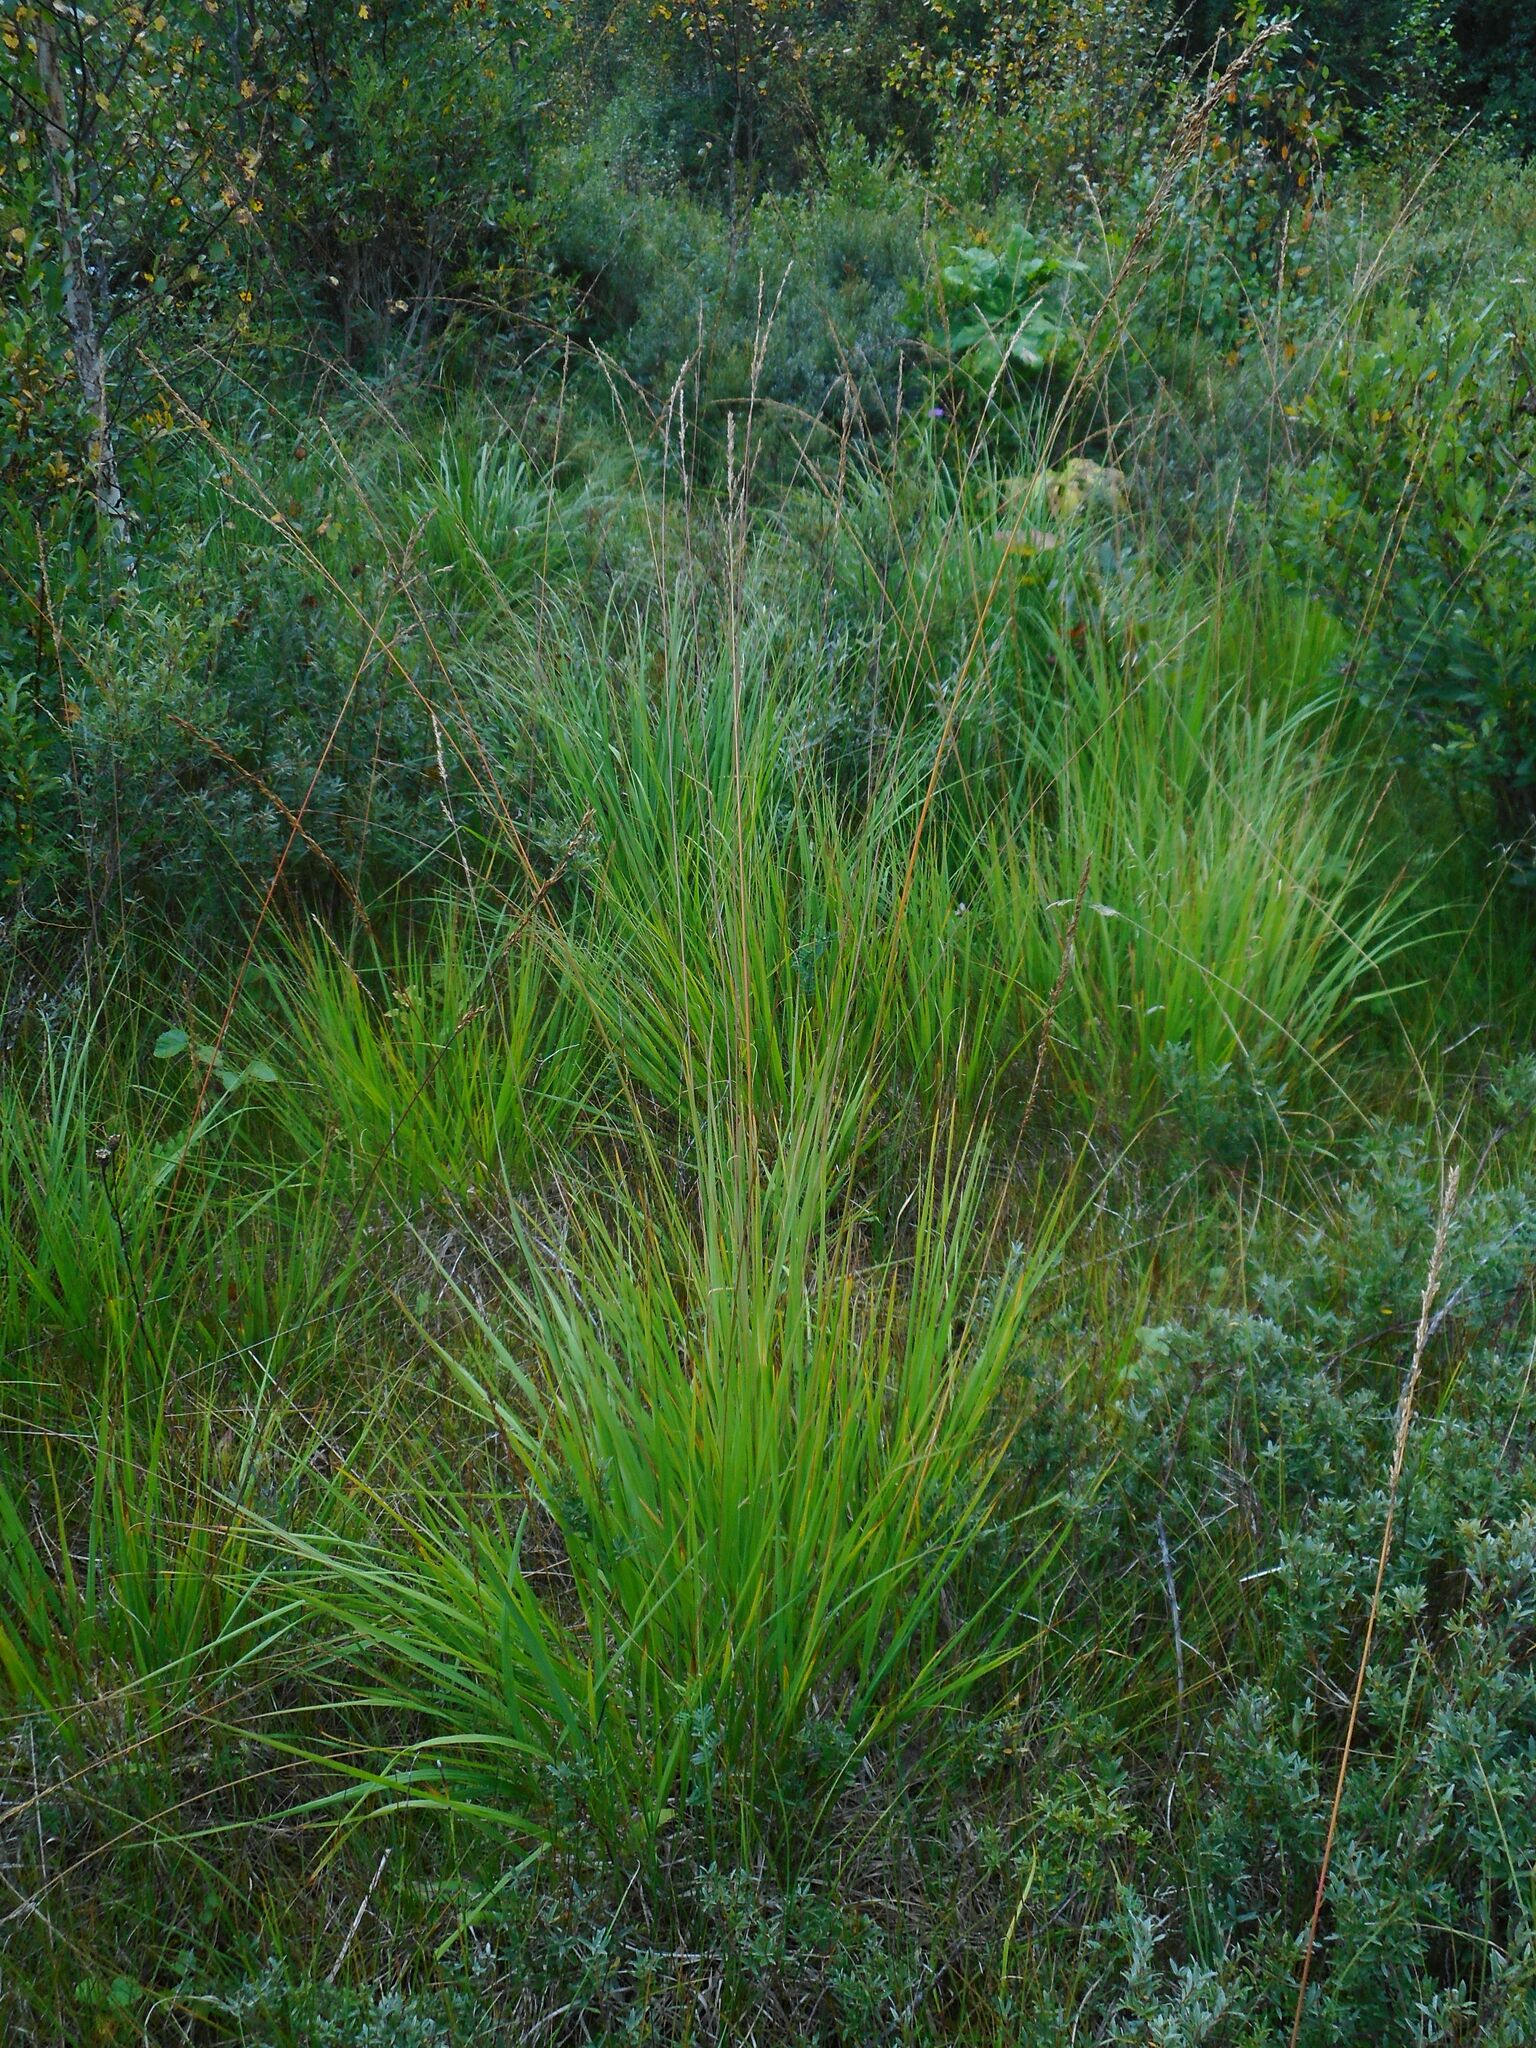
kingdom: Plantae
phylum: Tracheophyta
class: Liliopsida
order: Poales
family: Poaceae
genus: Molinia
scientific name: Molinia caerulea
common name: Purple moor-grass
